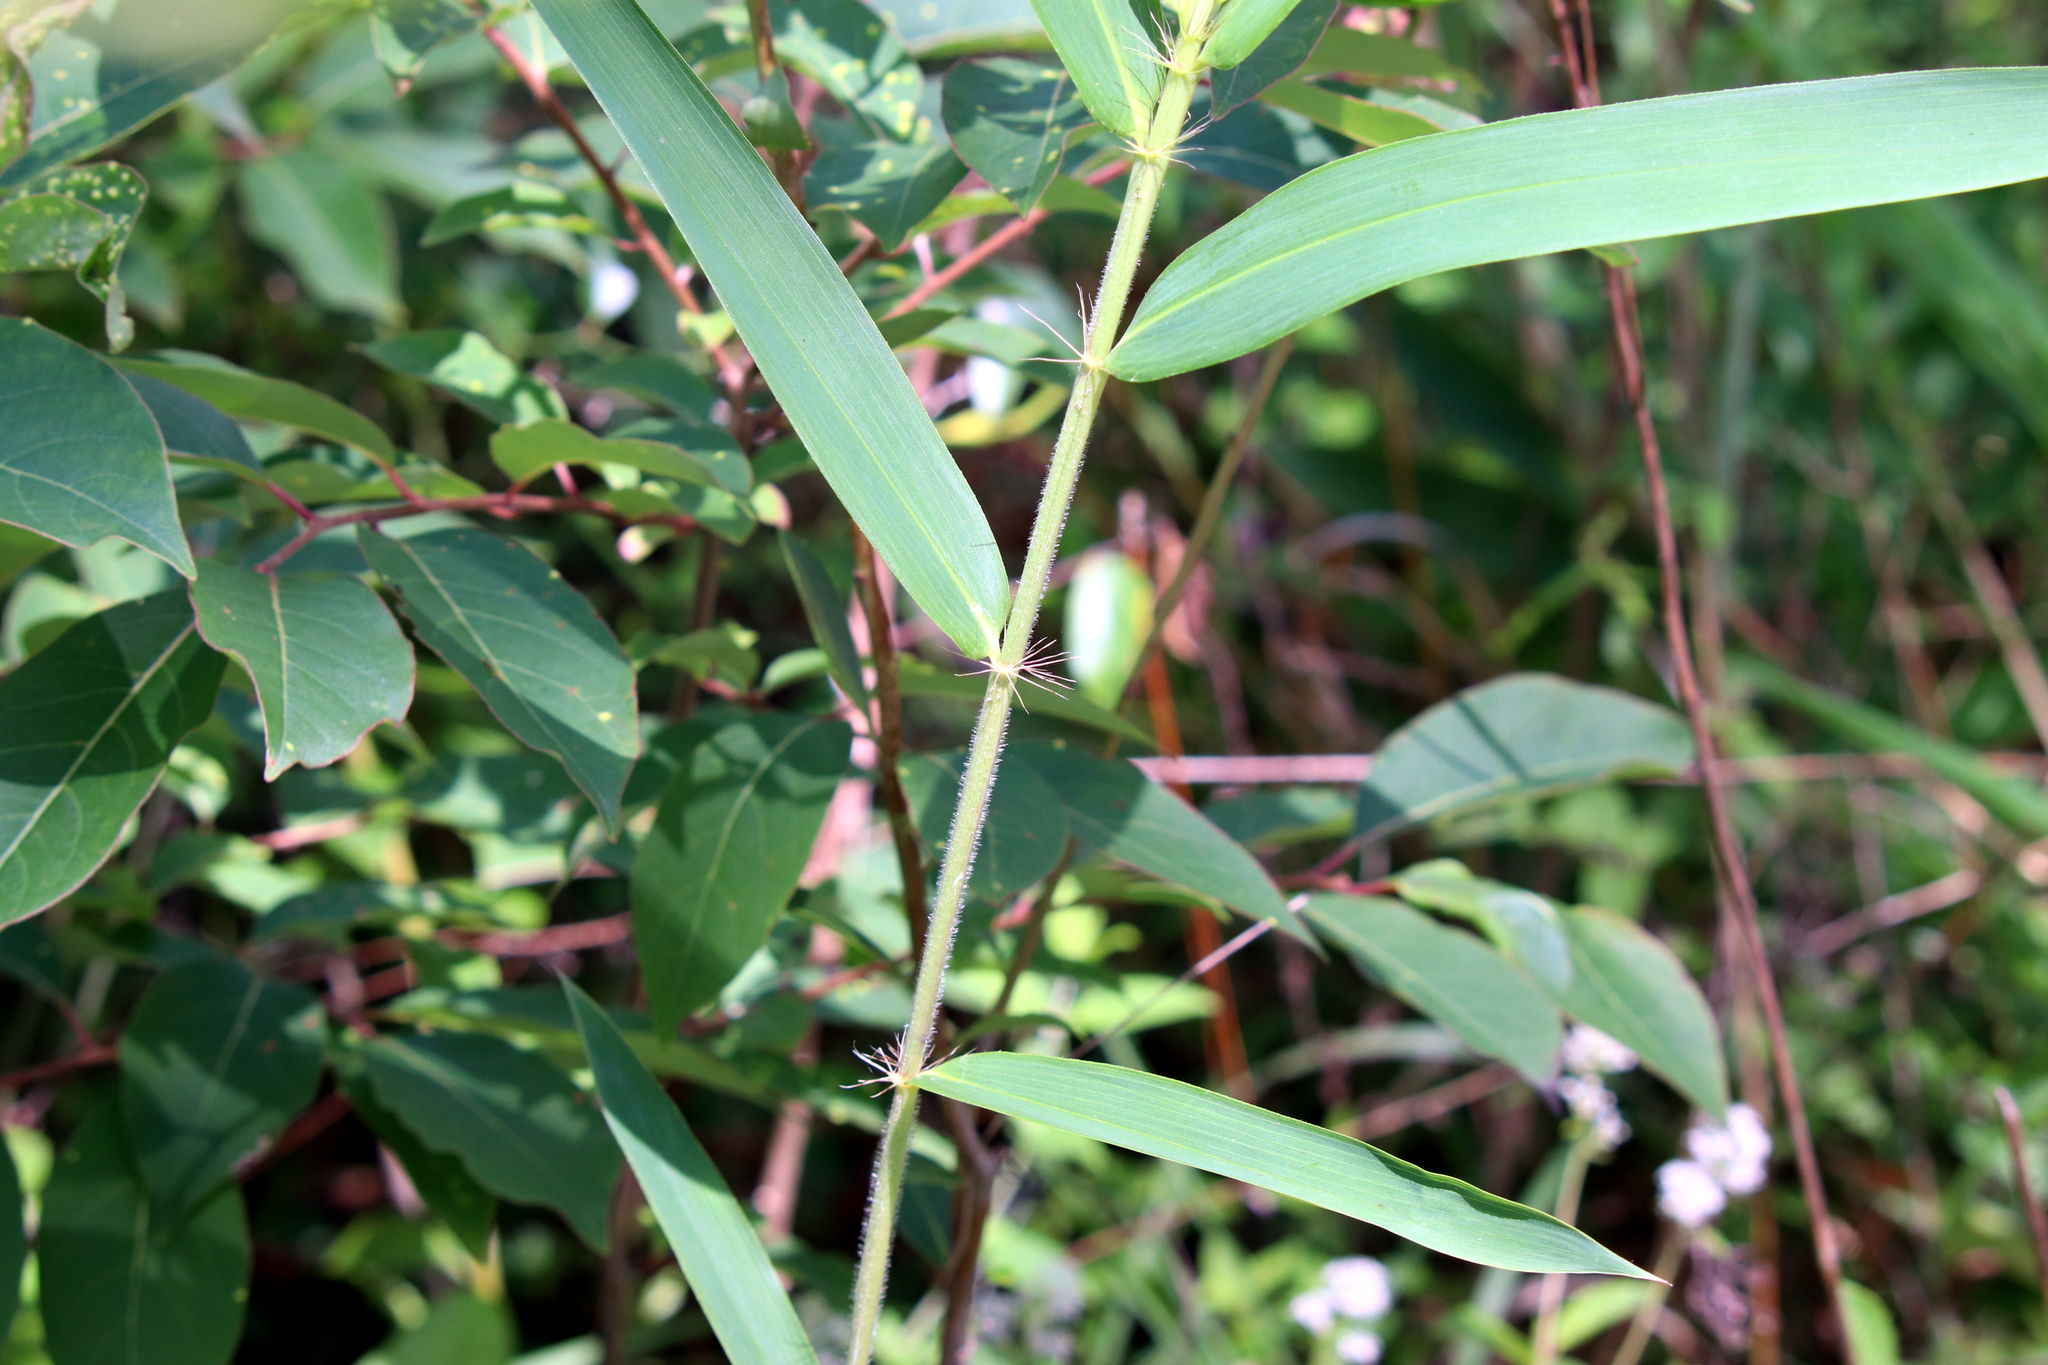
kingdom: Plantae
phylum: Tracheophyta
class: Liliopsida
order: Poales
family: Poaceae
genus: Arundinaria
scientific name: Arundinaria tecta
